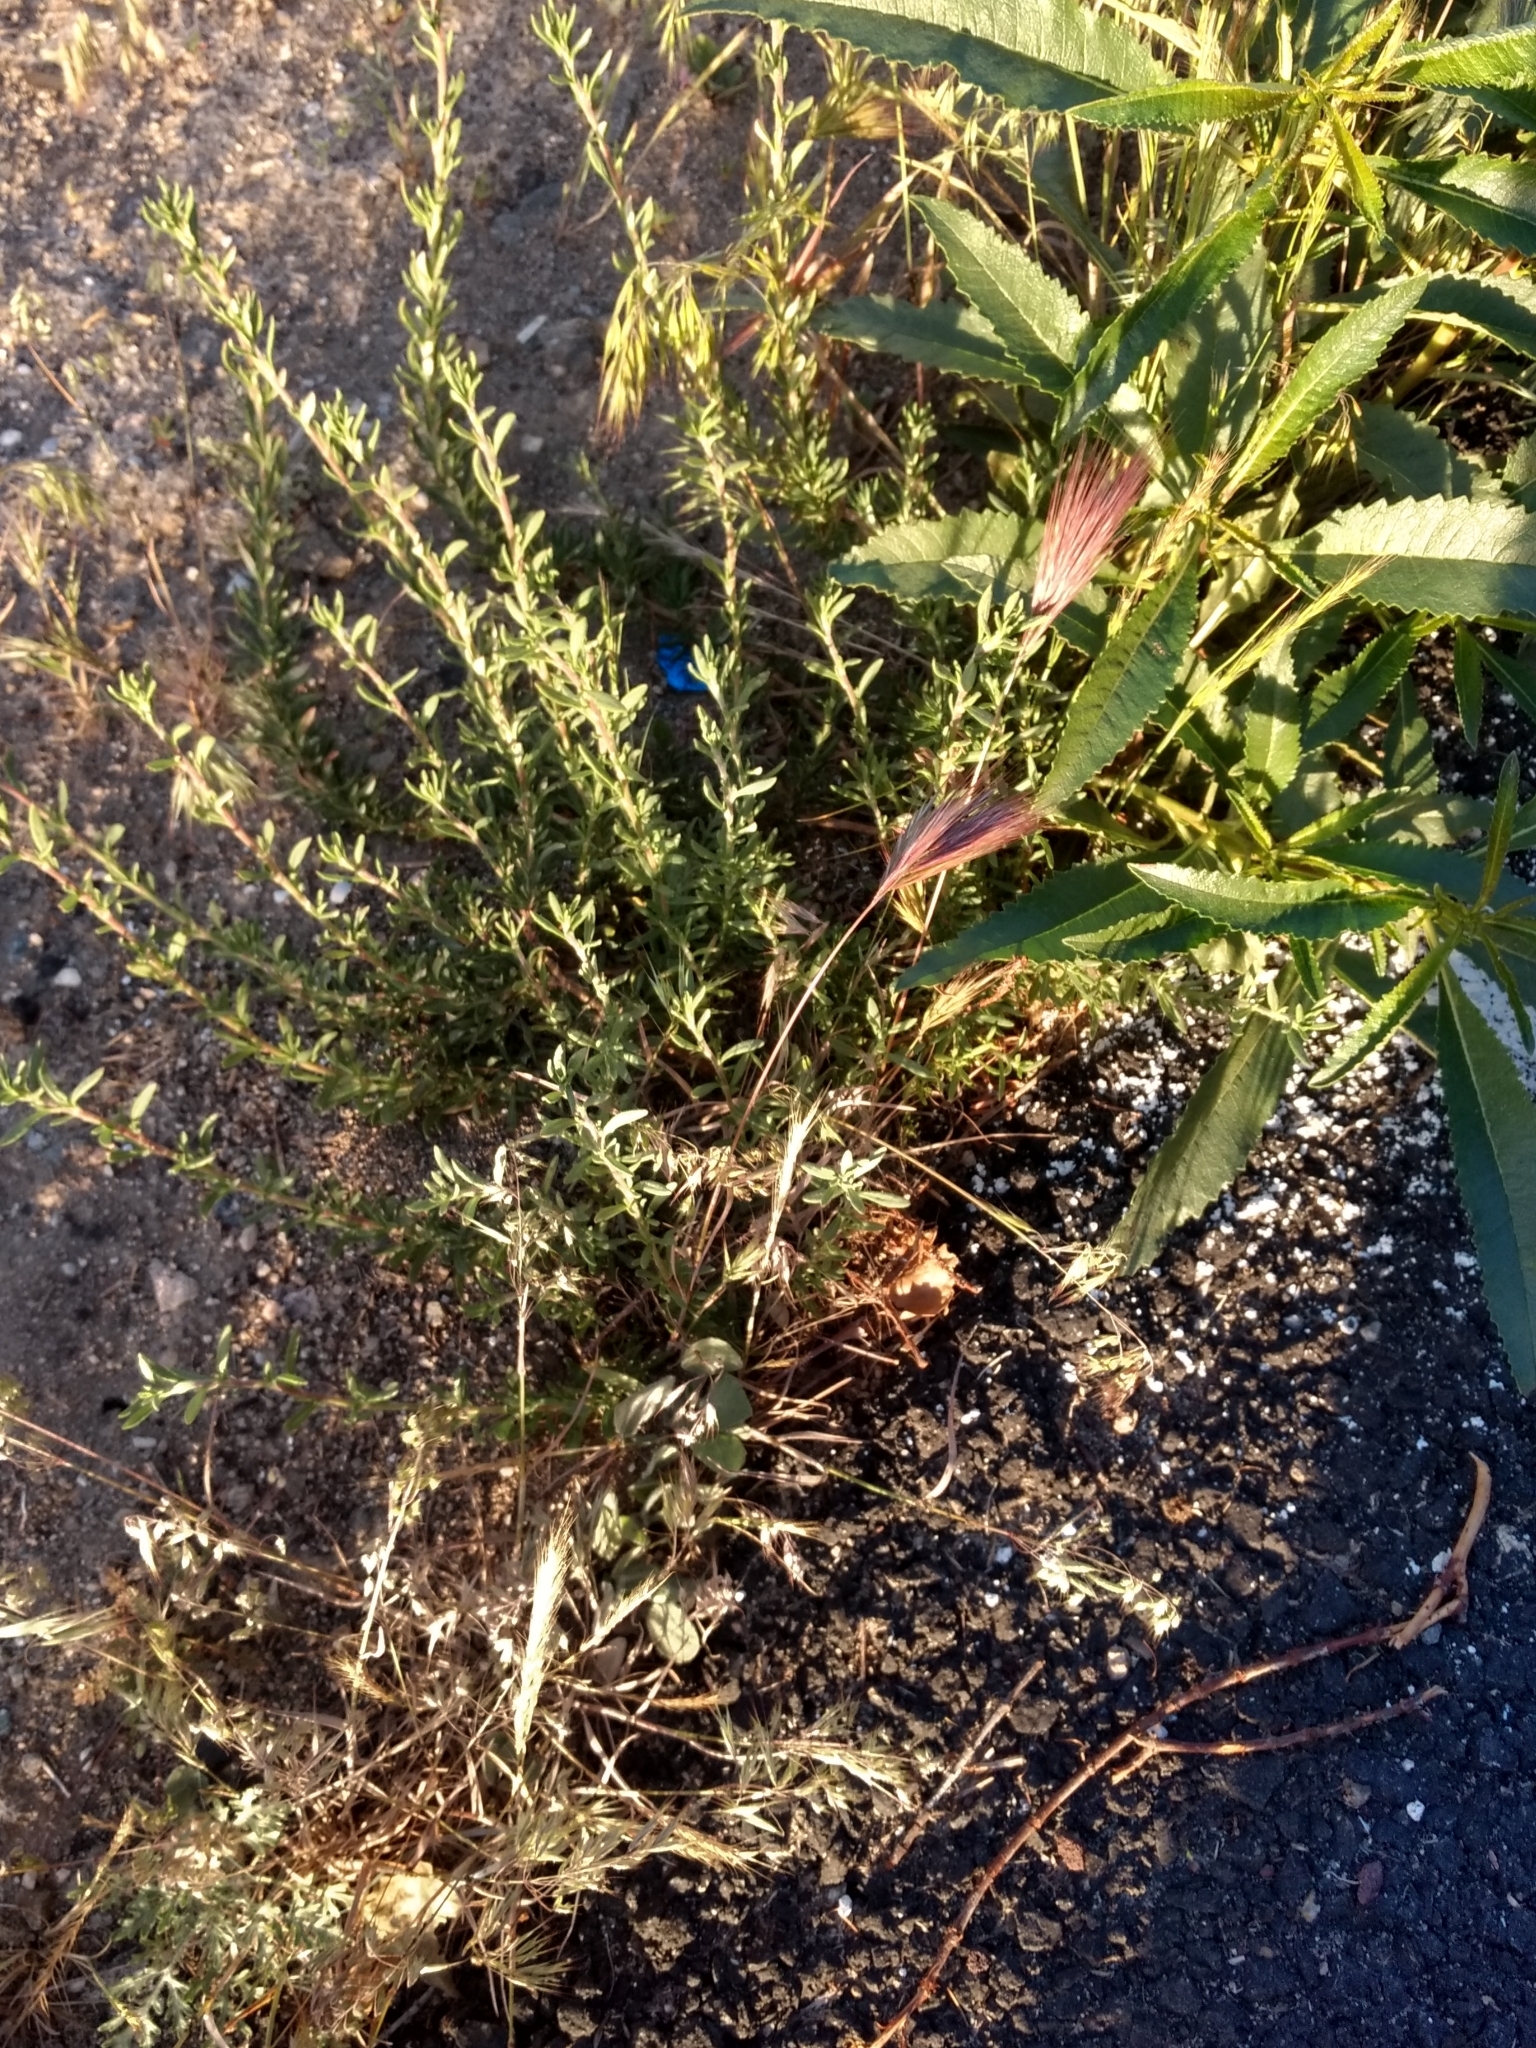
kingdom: Plantae
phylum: Tracheophyta
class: Magnoliopsida
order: Caryophyllales
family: Polygonaceae
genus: Eriogonum
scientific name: Eriogonum fasciculatum
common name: California wild buckwheat
